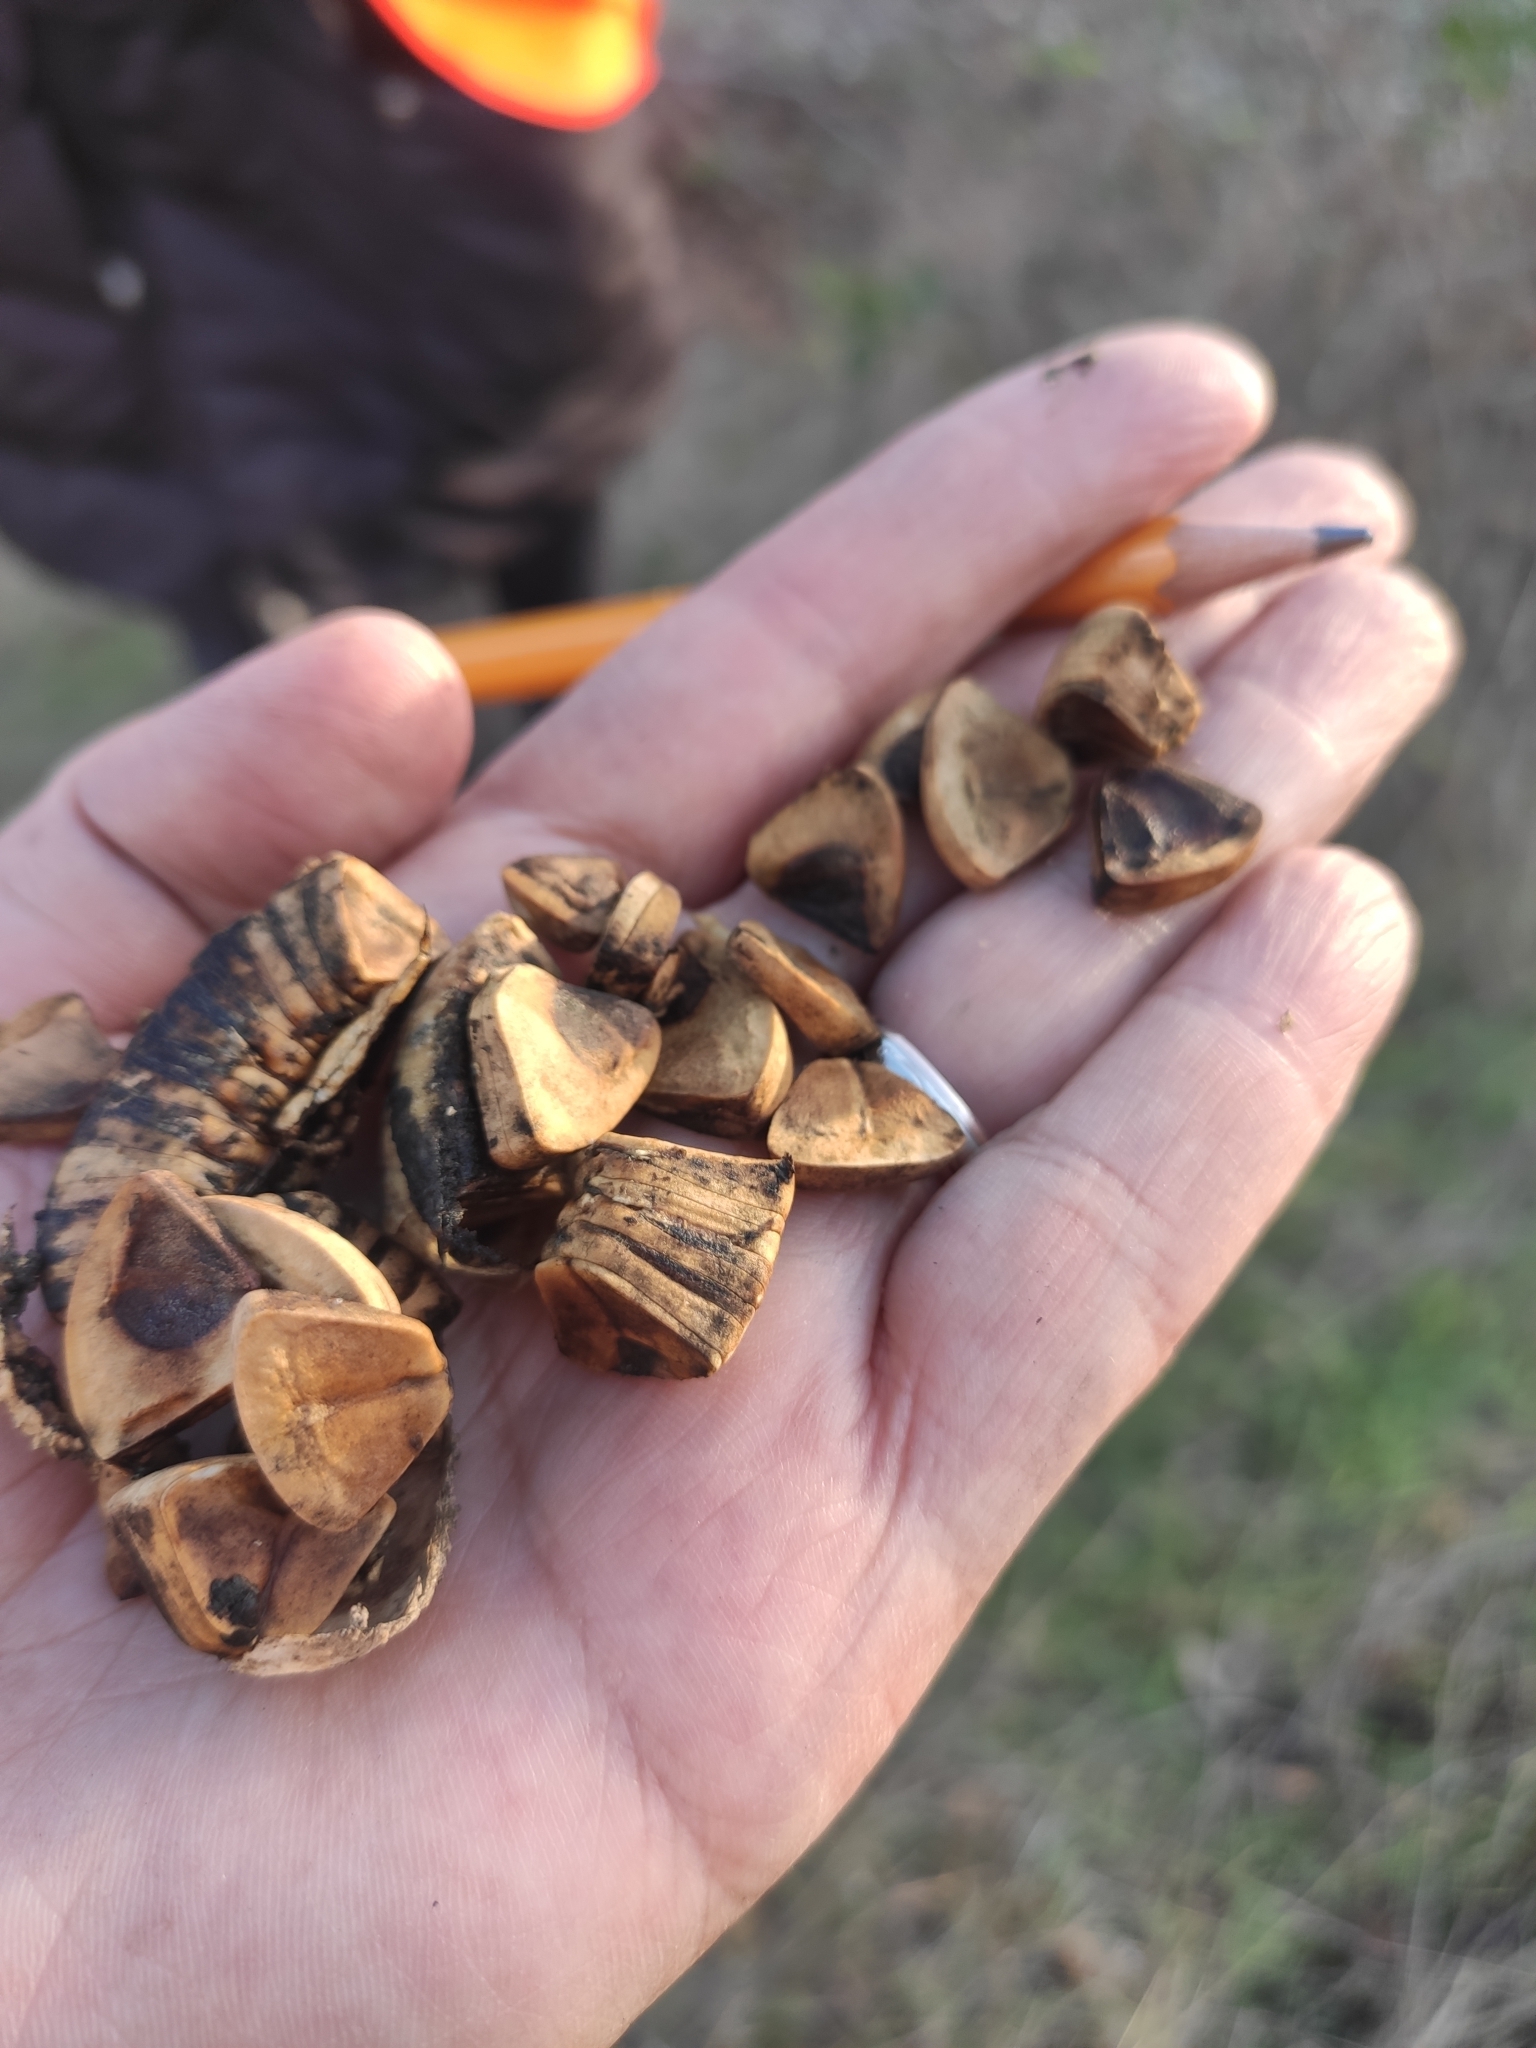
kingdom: Plantae
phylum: Tracheophyta
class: Magnoliopsida
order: Piperales
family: Aristolochiaceae
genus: Aristolochia
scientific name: Aristolochia clematitis
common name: Birthwort
